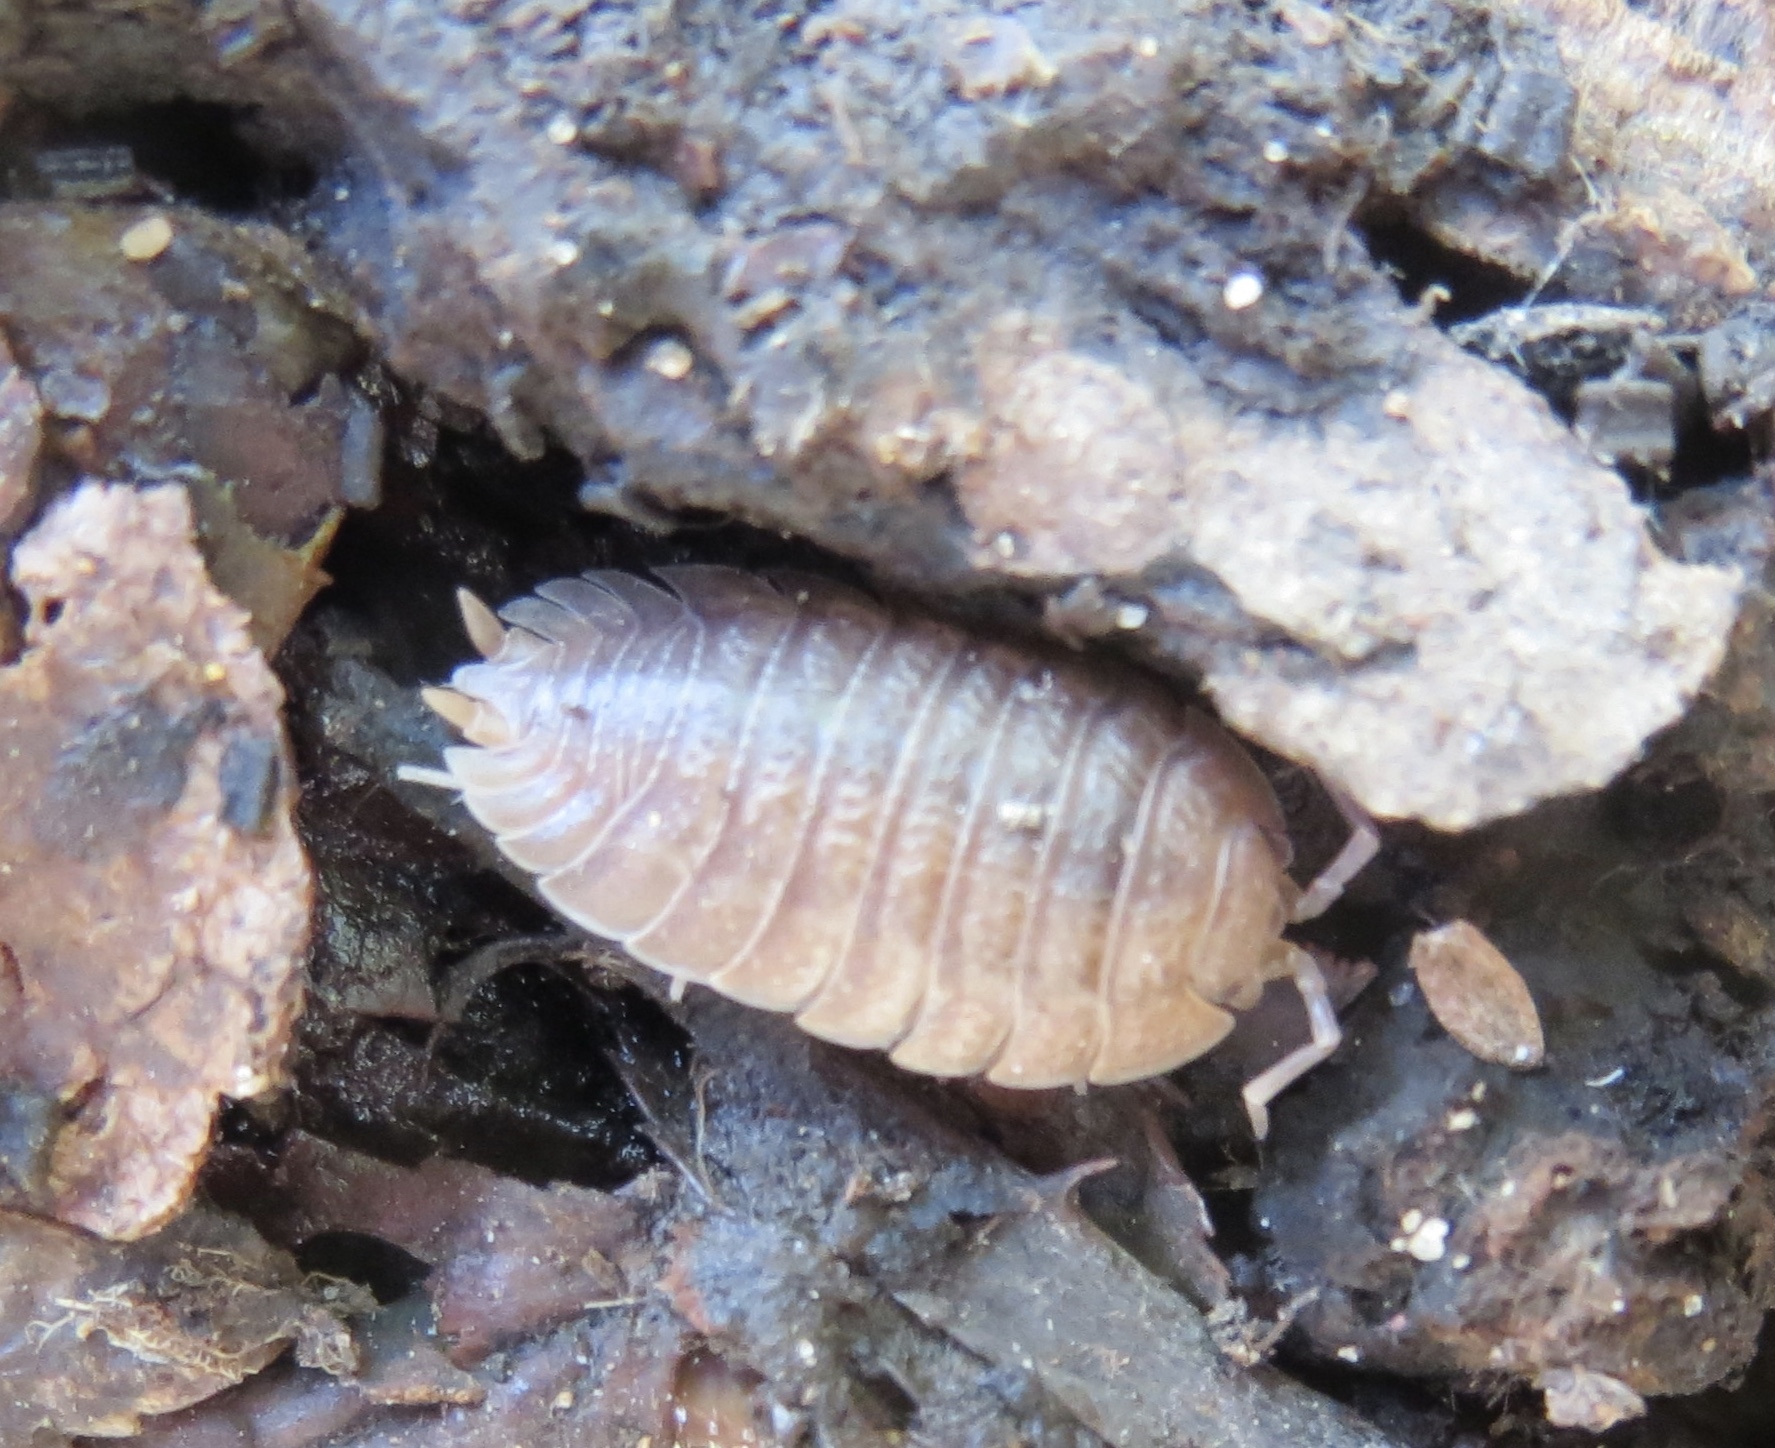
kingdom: Animalia
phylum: Arthropoda
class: Malacostraca
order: Isopoda
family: Porcellionidae
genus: Porcellio
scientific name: Porcellio dilatatus
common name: Isopod
